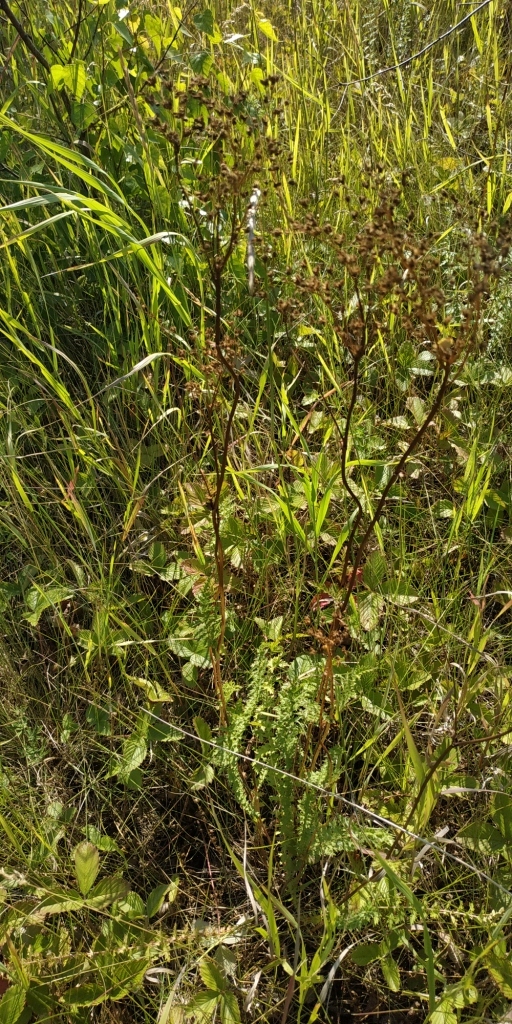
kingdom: Plantae
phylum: Tracheophyta
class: Magnoliopsida
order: Rosales
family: Rosaceae
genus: Filipendula
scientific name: Filipendula vulgaris
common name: Dropwort
